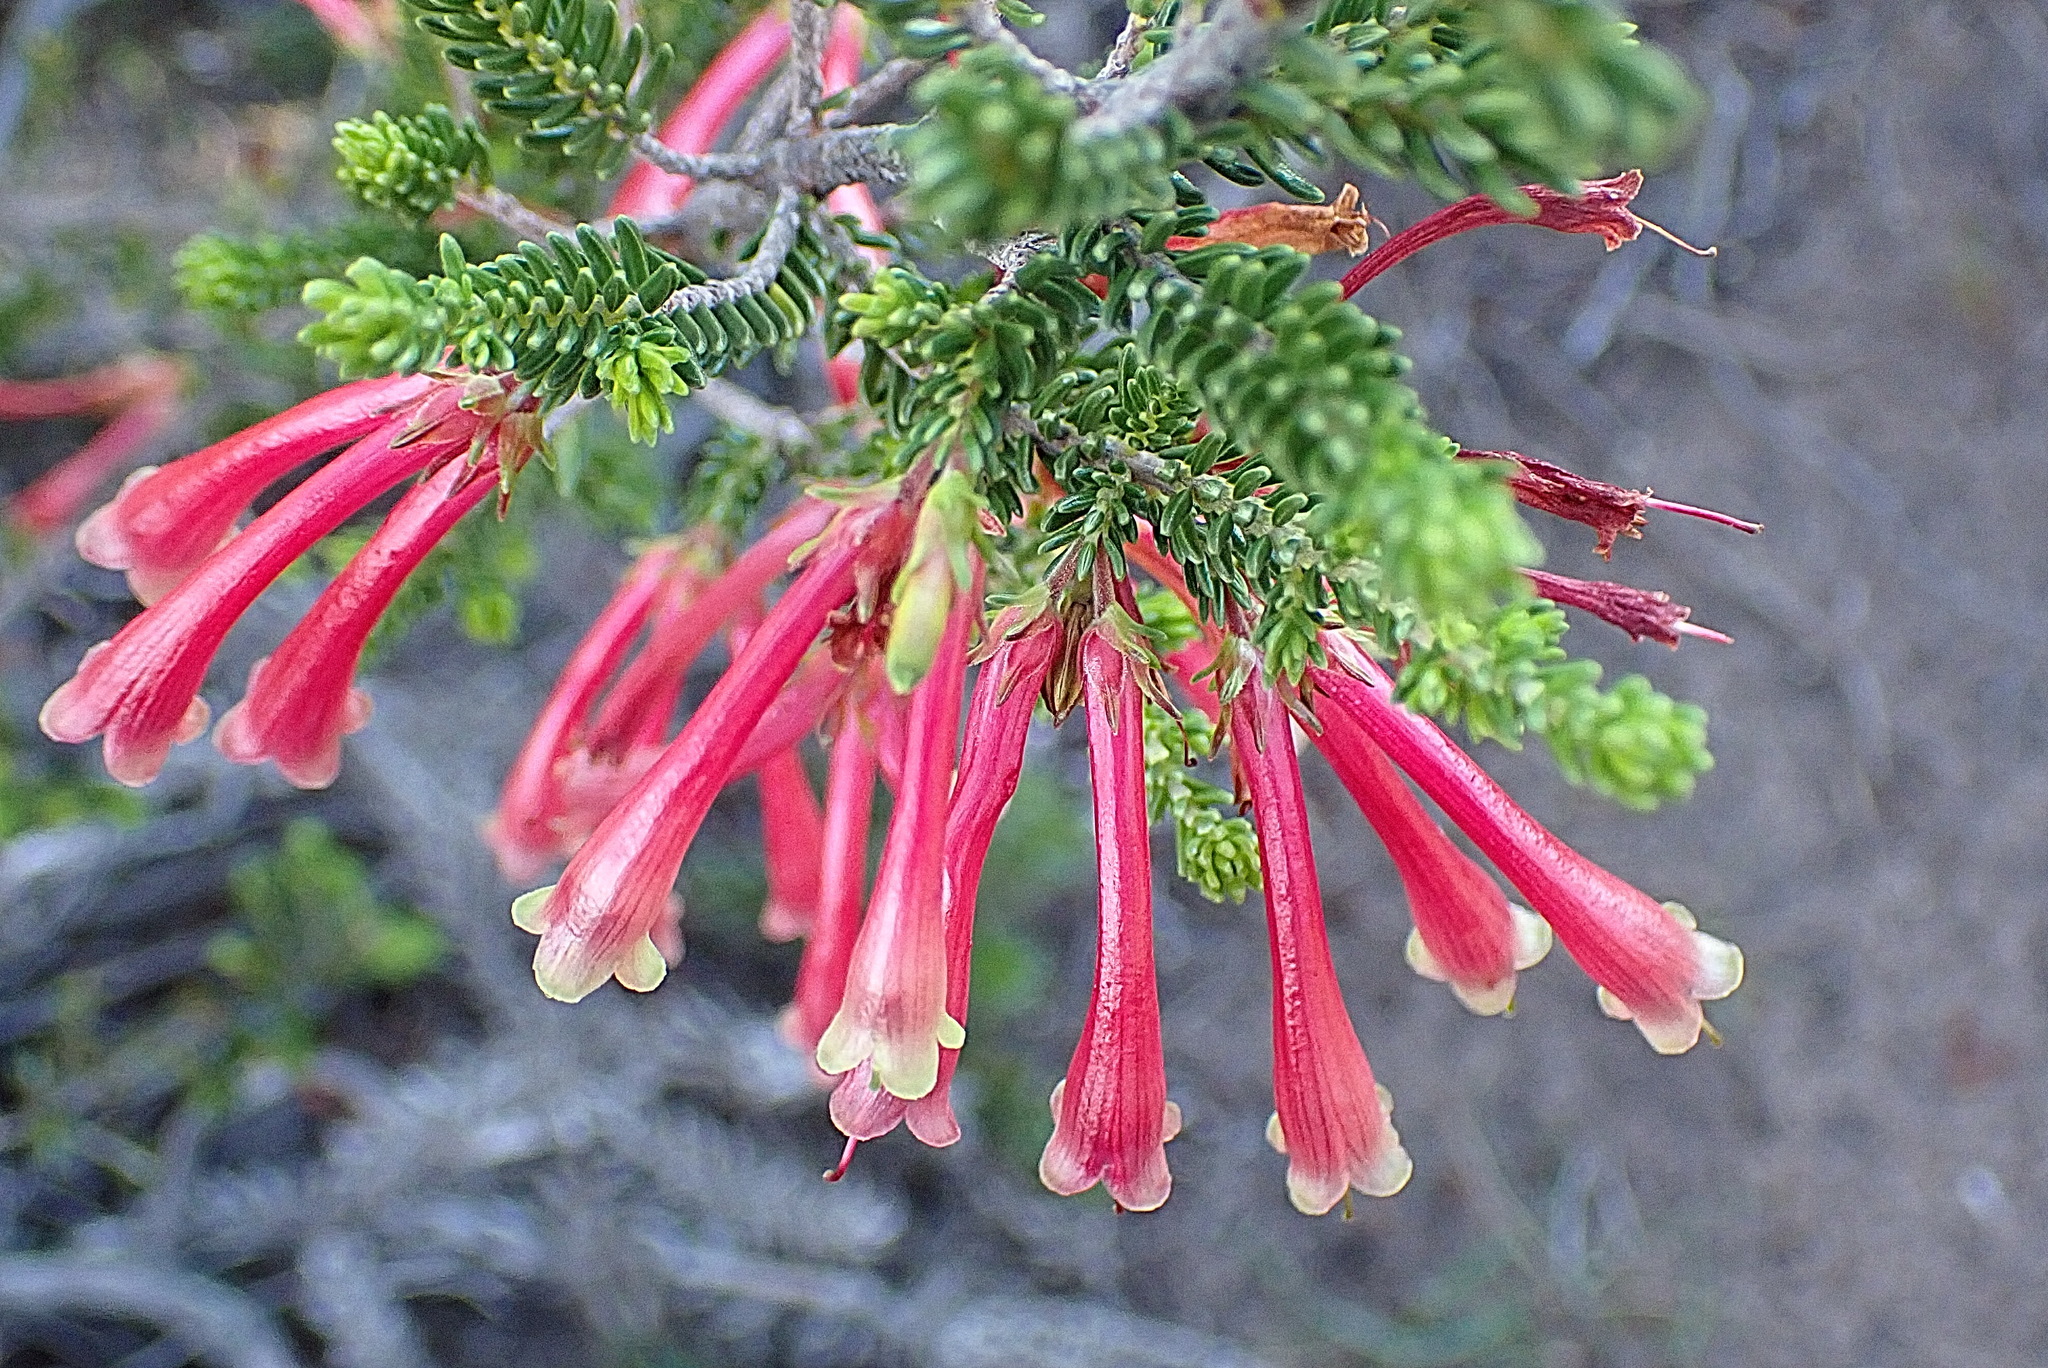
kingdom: Plantae
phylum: Tracheophyta
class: Magnoliopsida
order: Ericales
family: Ericaceae
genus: Erica
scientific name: Erica discolor
